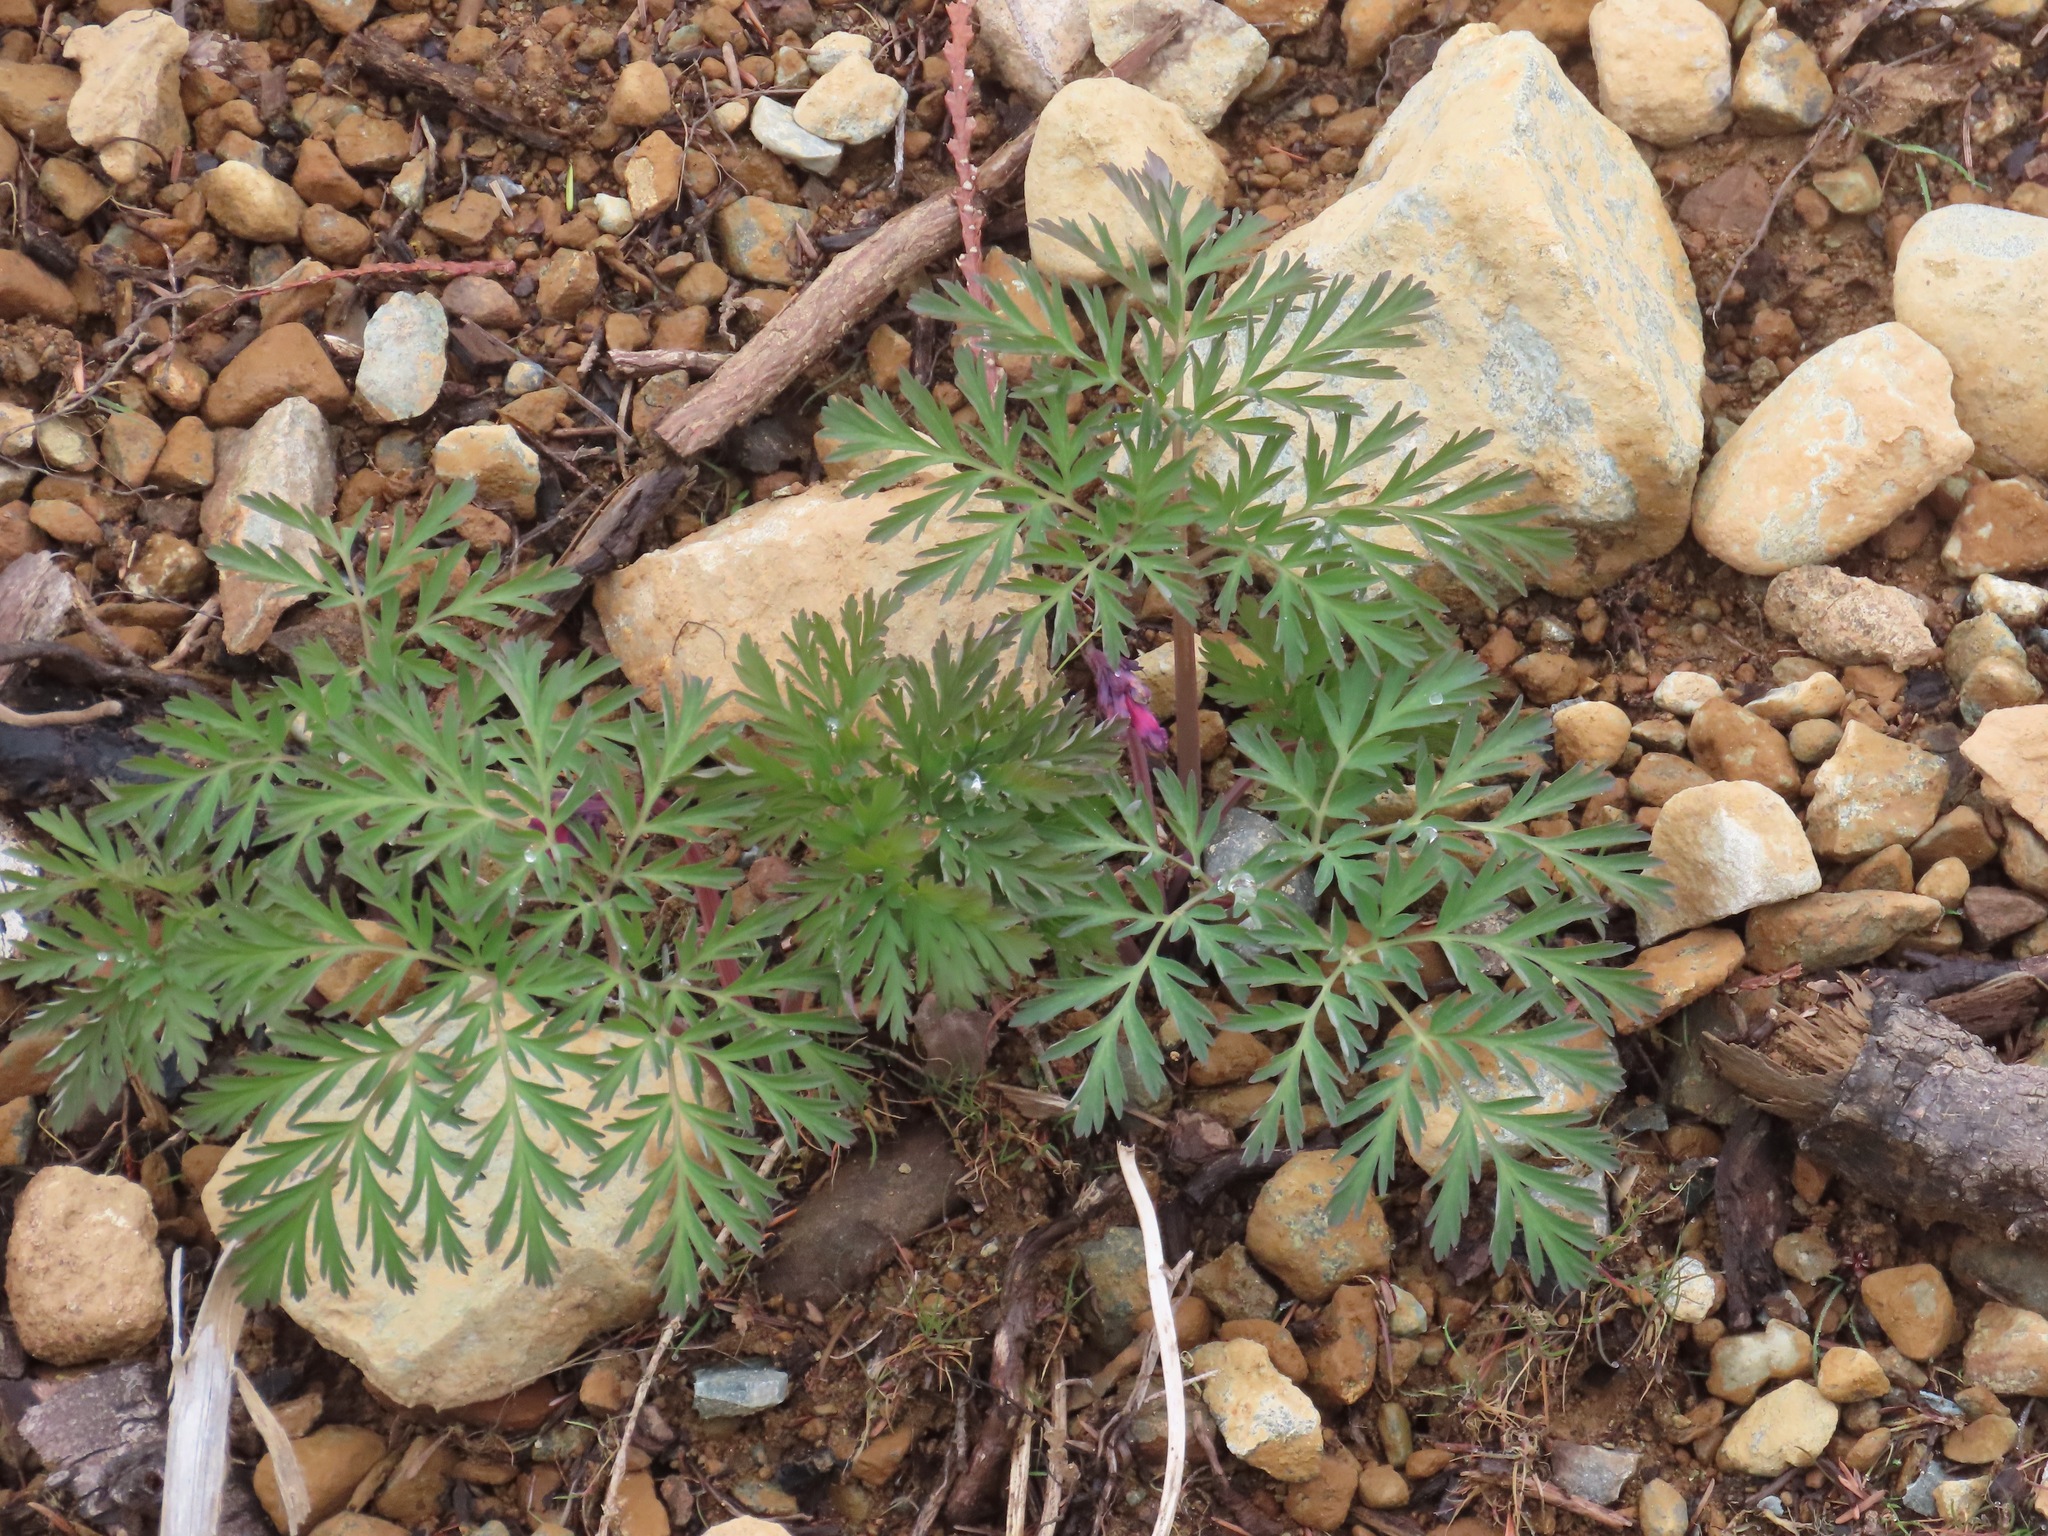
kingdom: Plantae
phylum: Tracheophyta
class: Magnoliopsida
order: Ranunculales
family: Papaveraceae
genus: Dicentra
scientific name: Dicentra formosa
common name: Bleeding-heart
